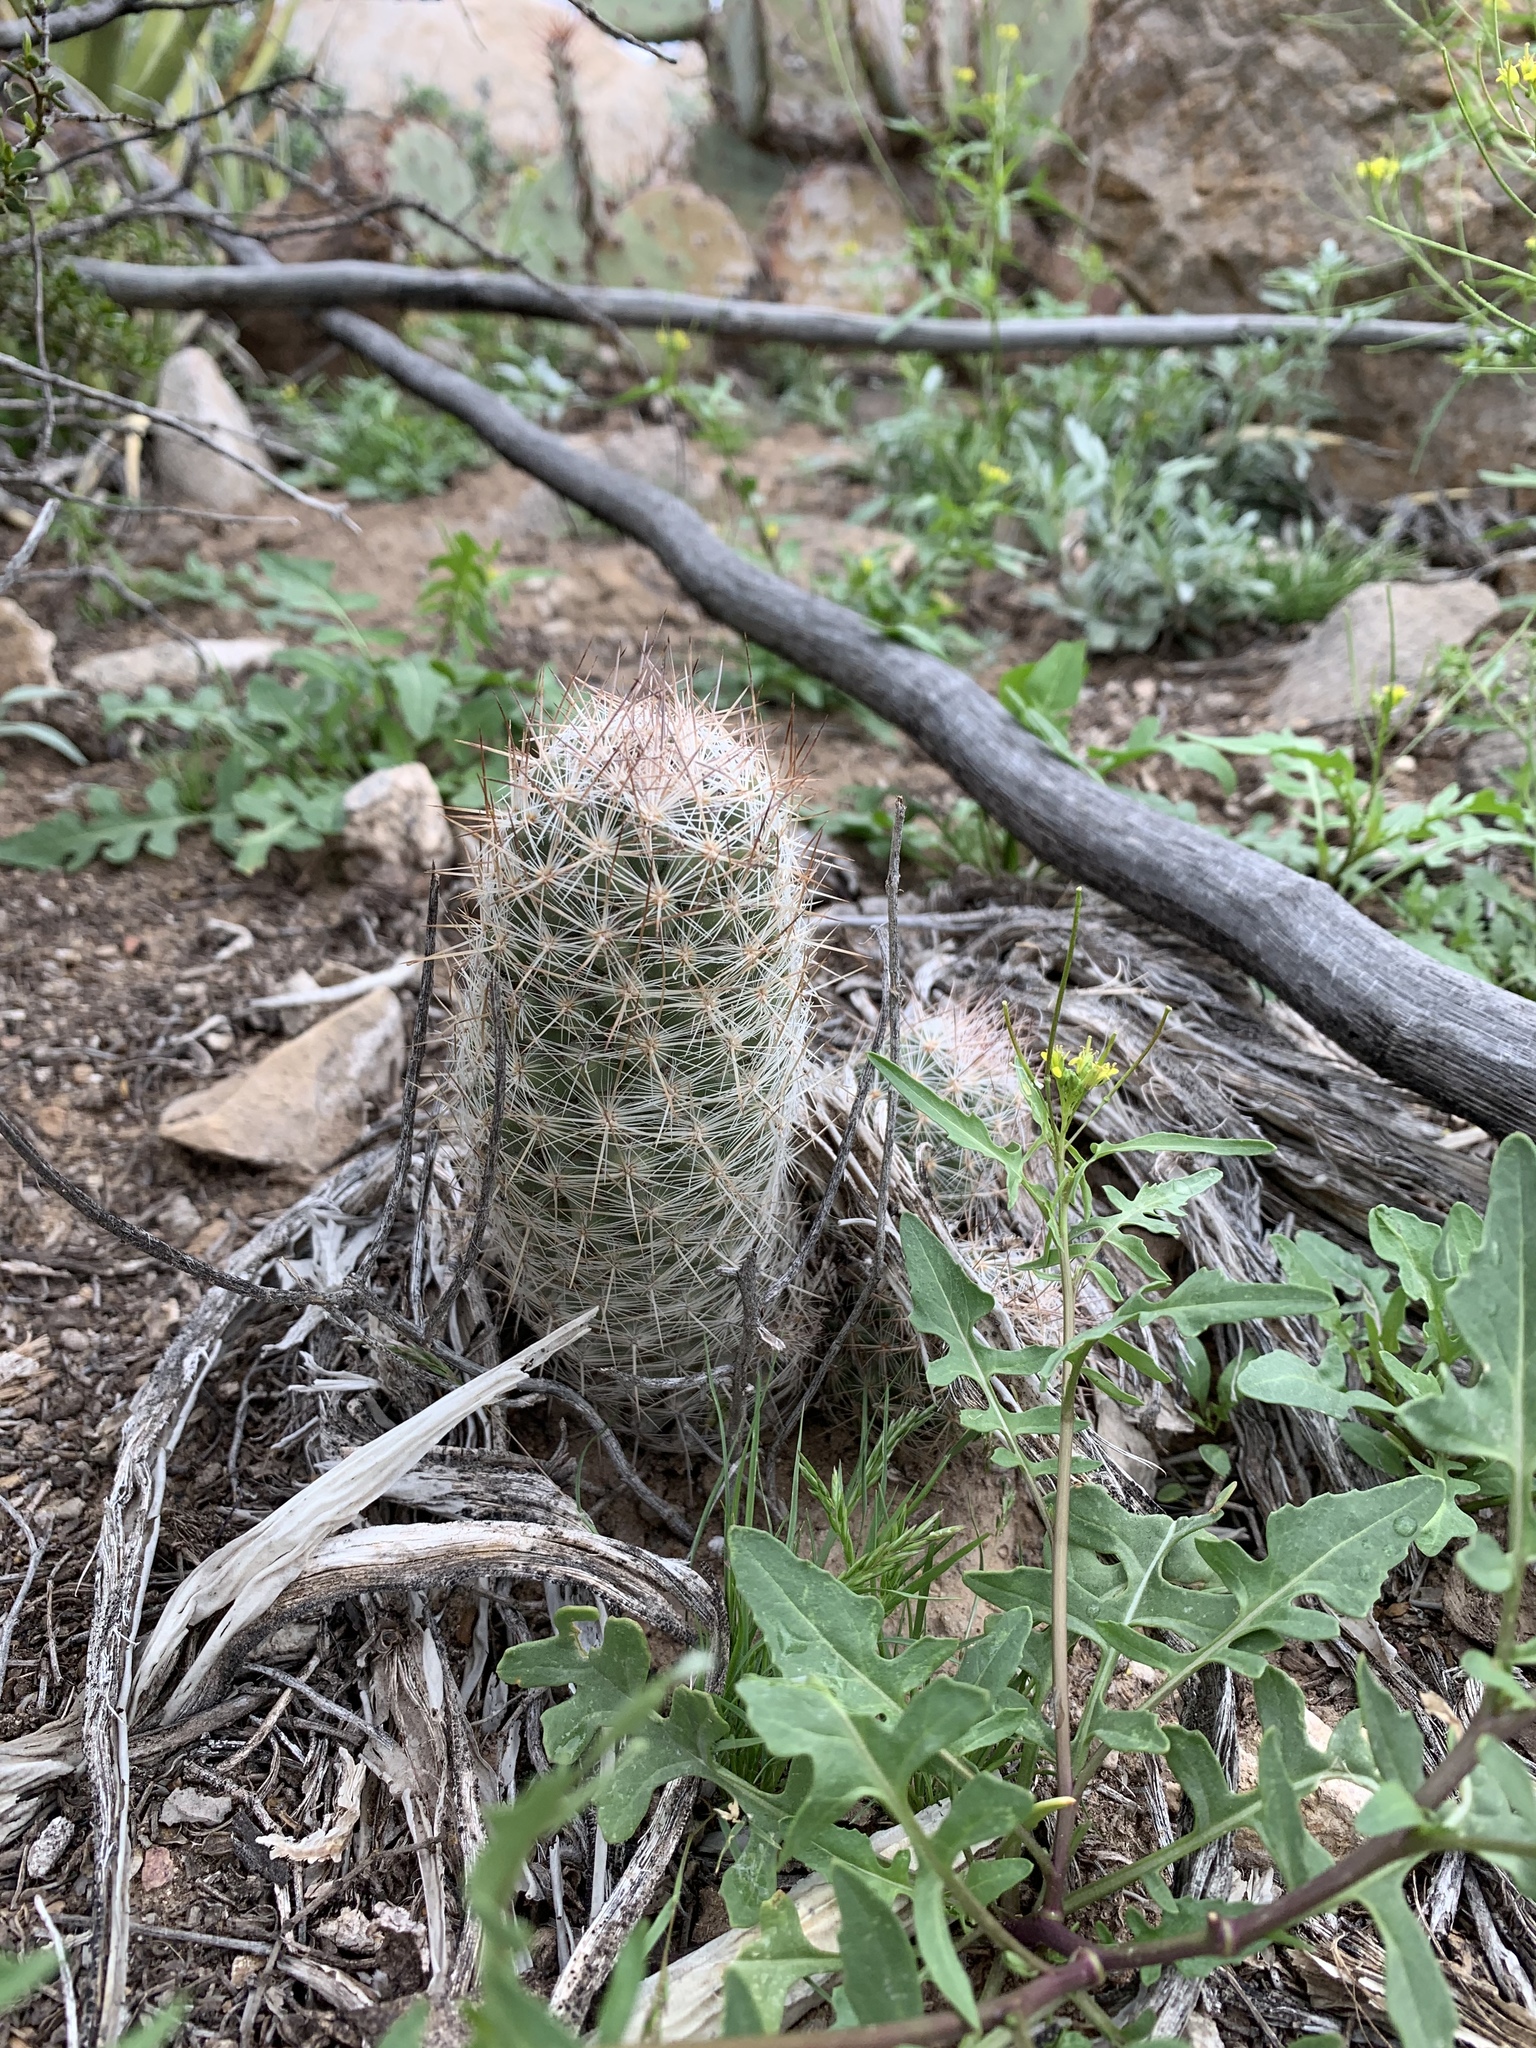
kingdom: Plantae
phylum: Tracheophyta
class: Magnoliopsida
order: Caryophyllales
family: Cactaceae
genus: Pelecyphora
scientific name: Pelecyphora tuberculosa
